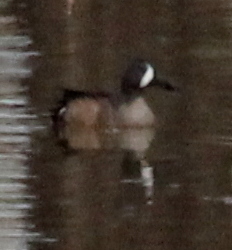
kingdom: Animalia
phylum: Chordata
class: Aves
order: Anseriformes
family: Anatidae
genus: Spatula
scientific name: Spatula discors
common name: Blue-winged teal
